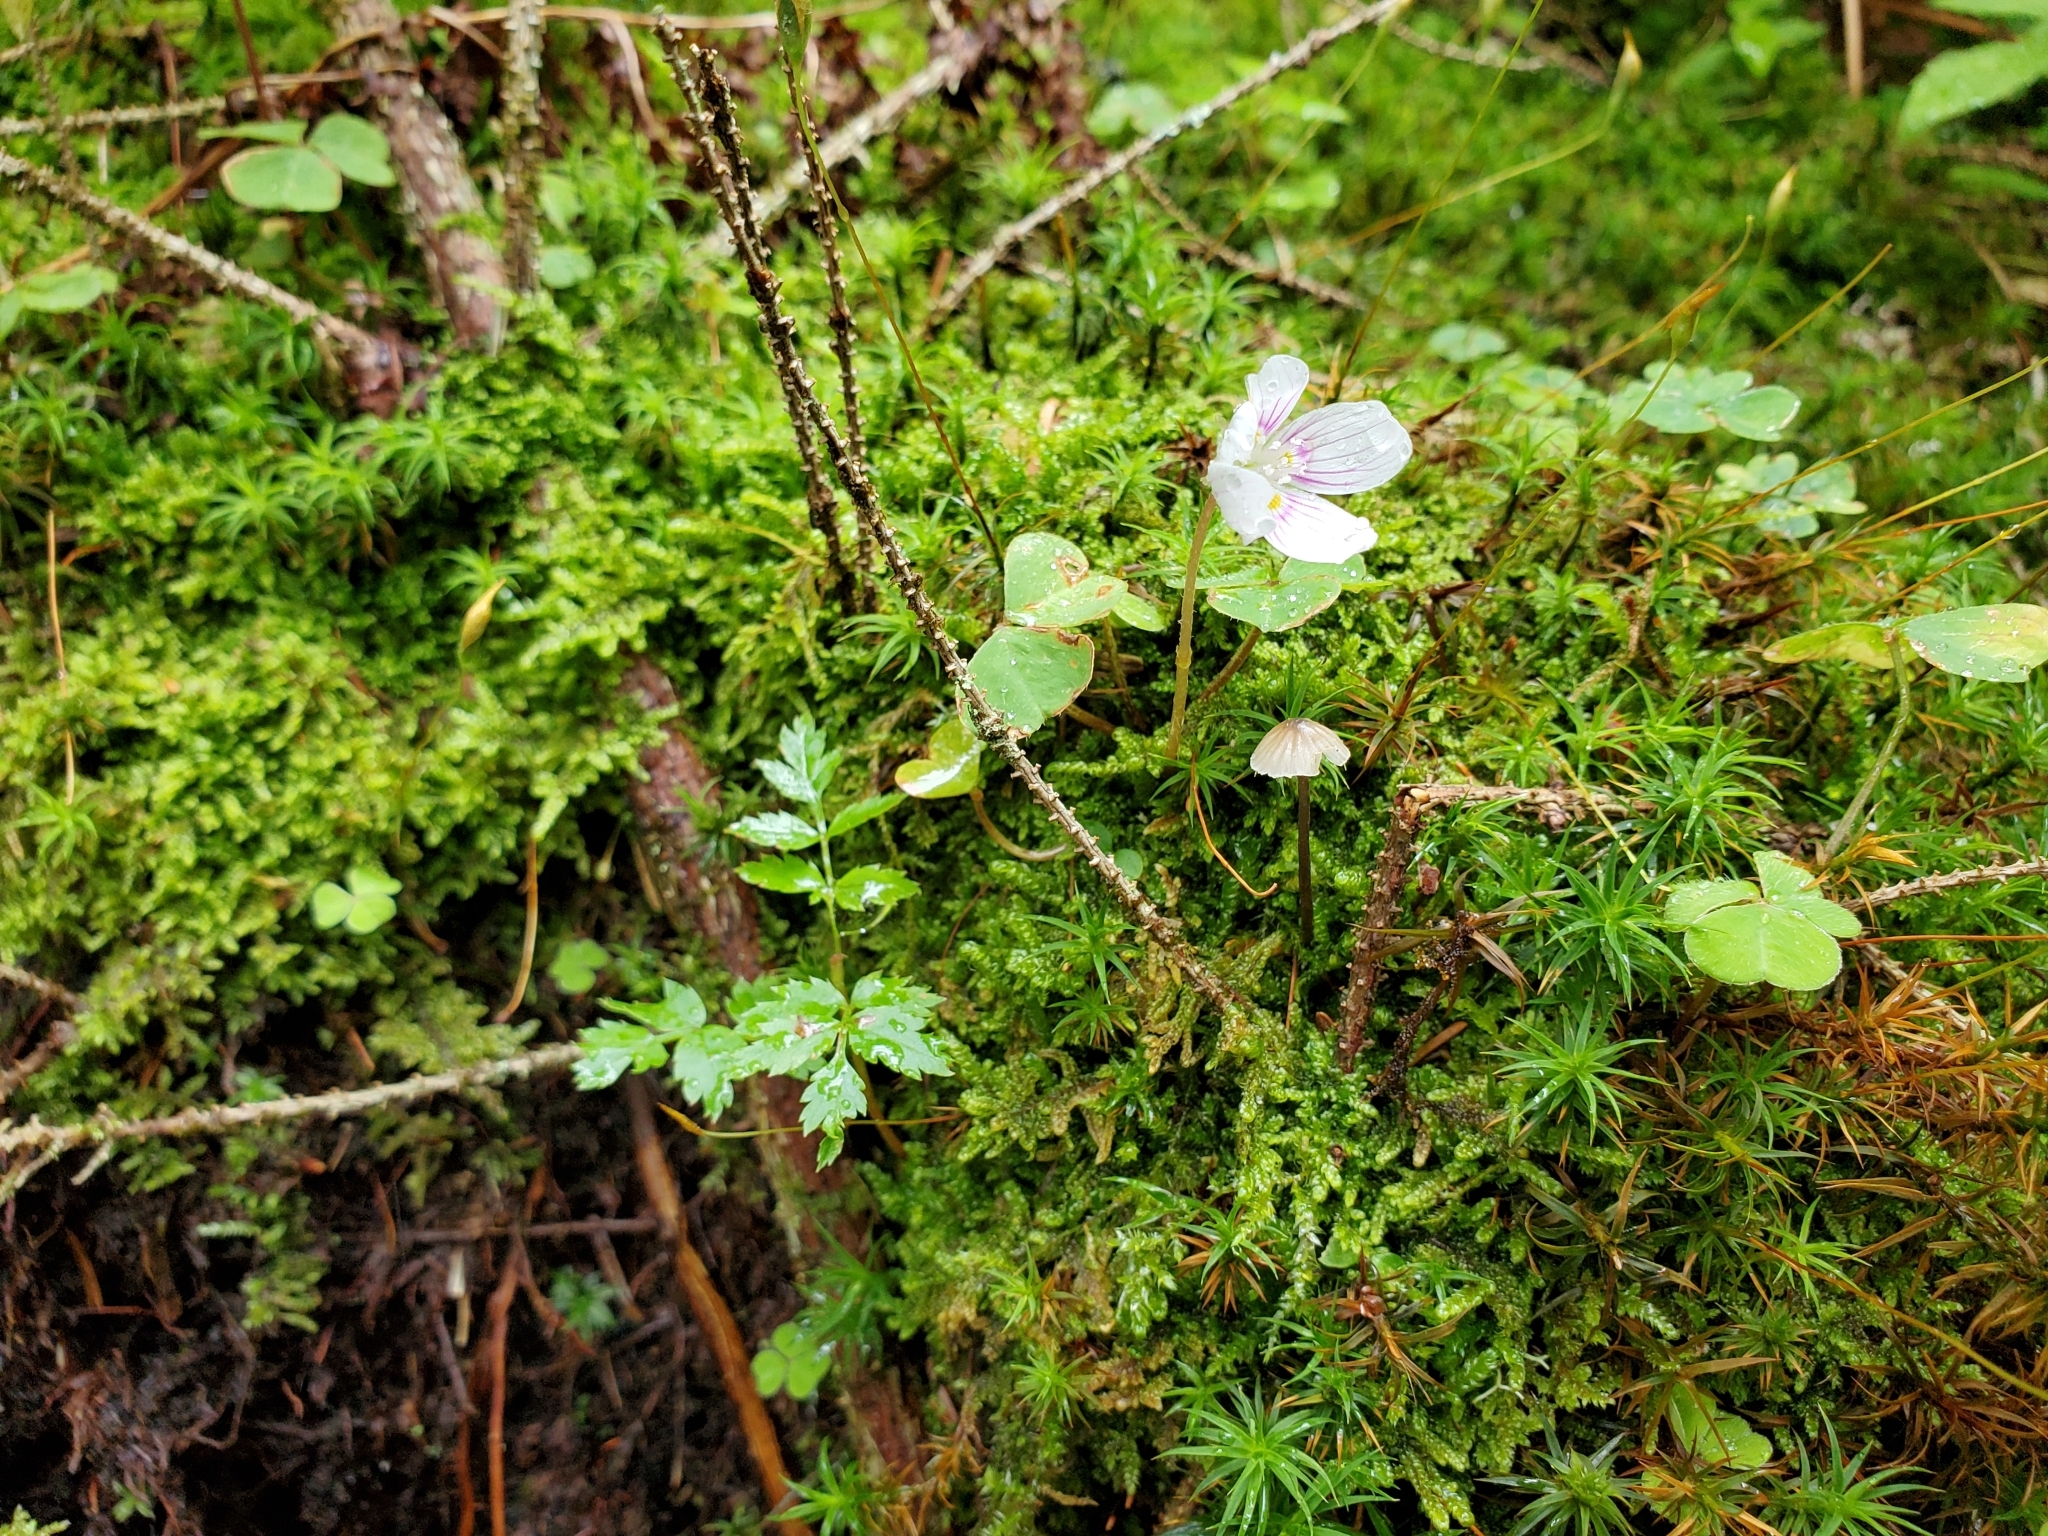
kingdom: Plantae
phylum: Tracheophyta
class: Magnoliopsida
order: Oxalidales
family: Oxalidaceae
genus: Oxalis
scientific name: Oxalis montana
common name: American wood-sorrel
